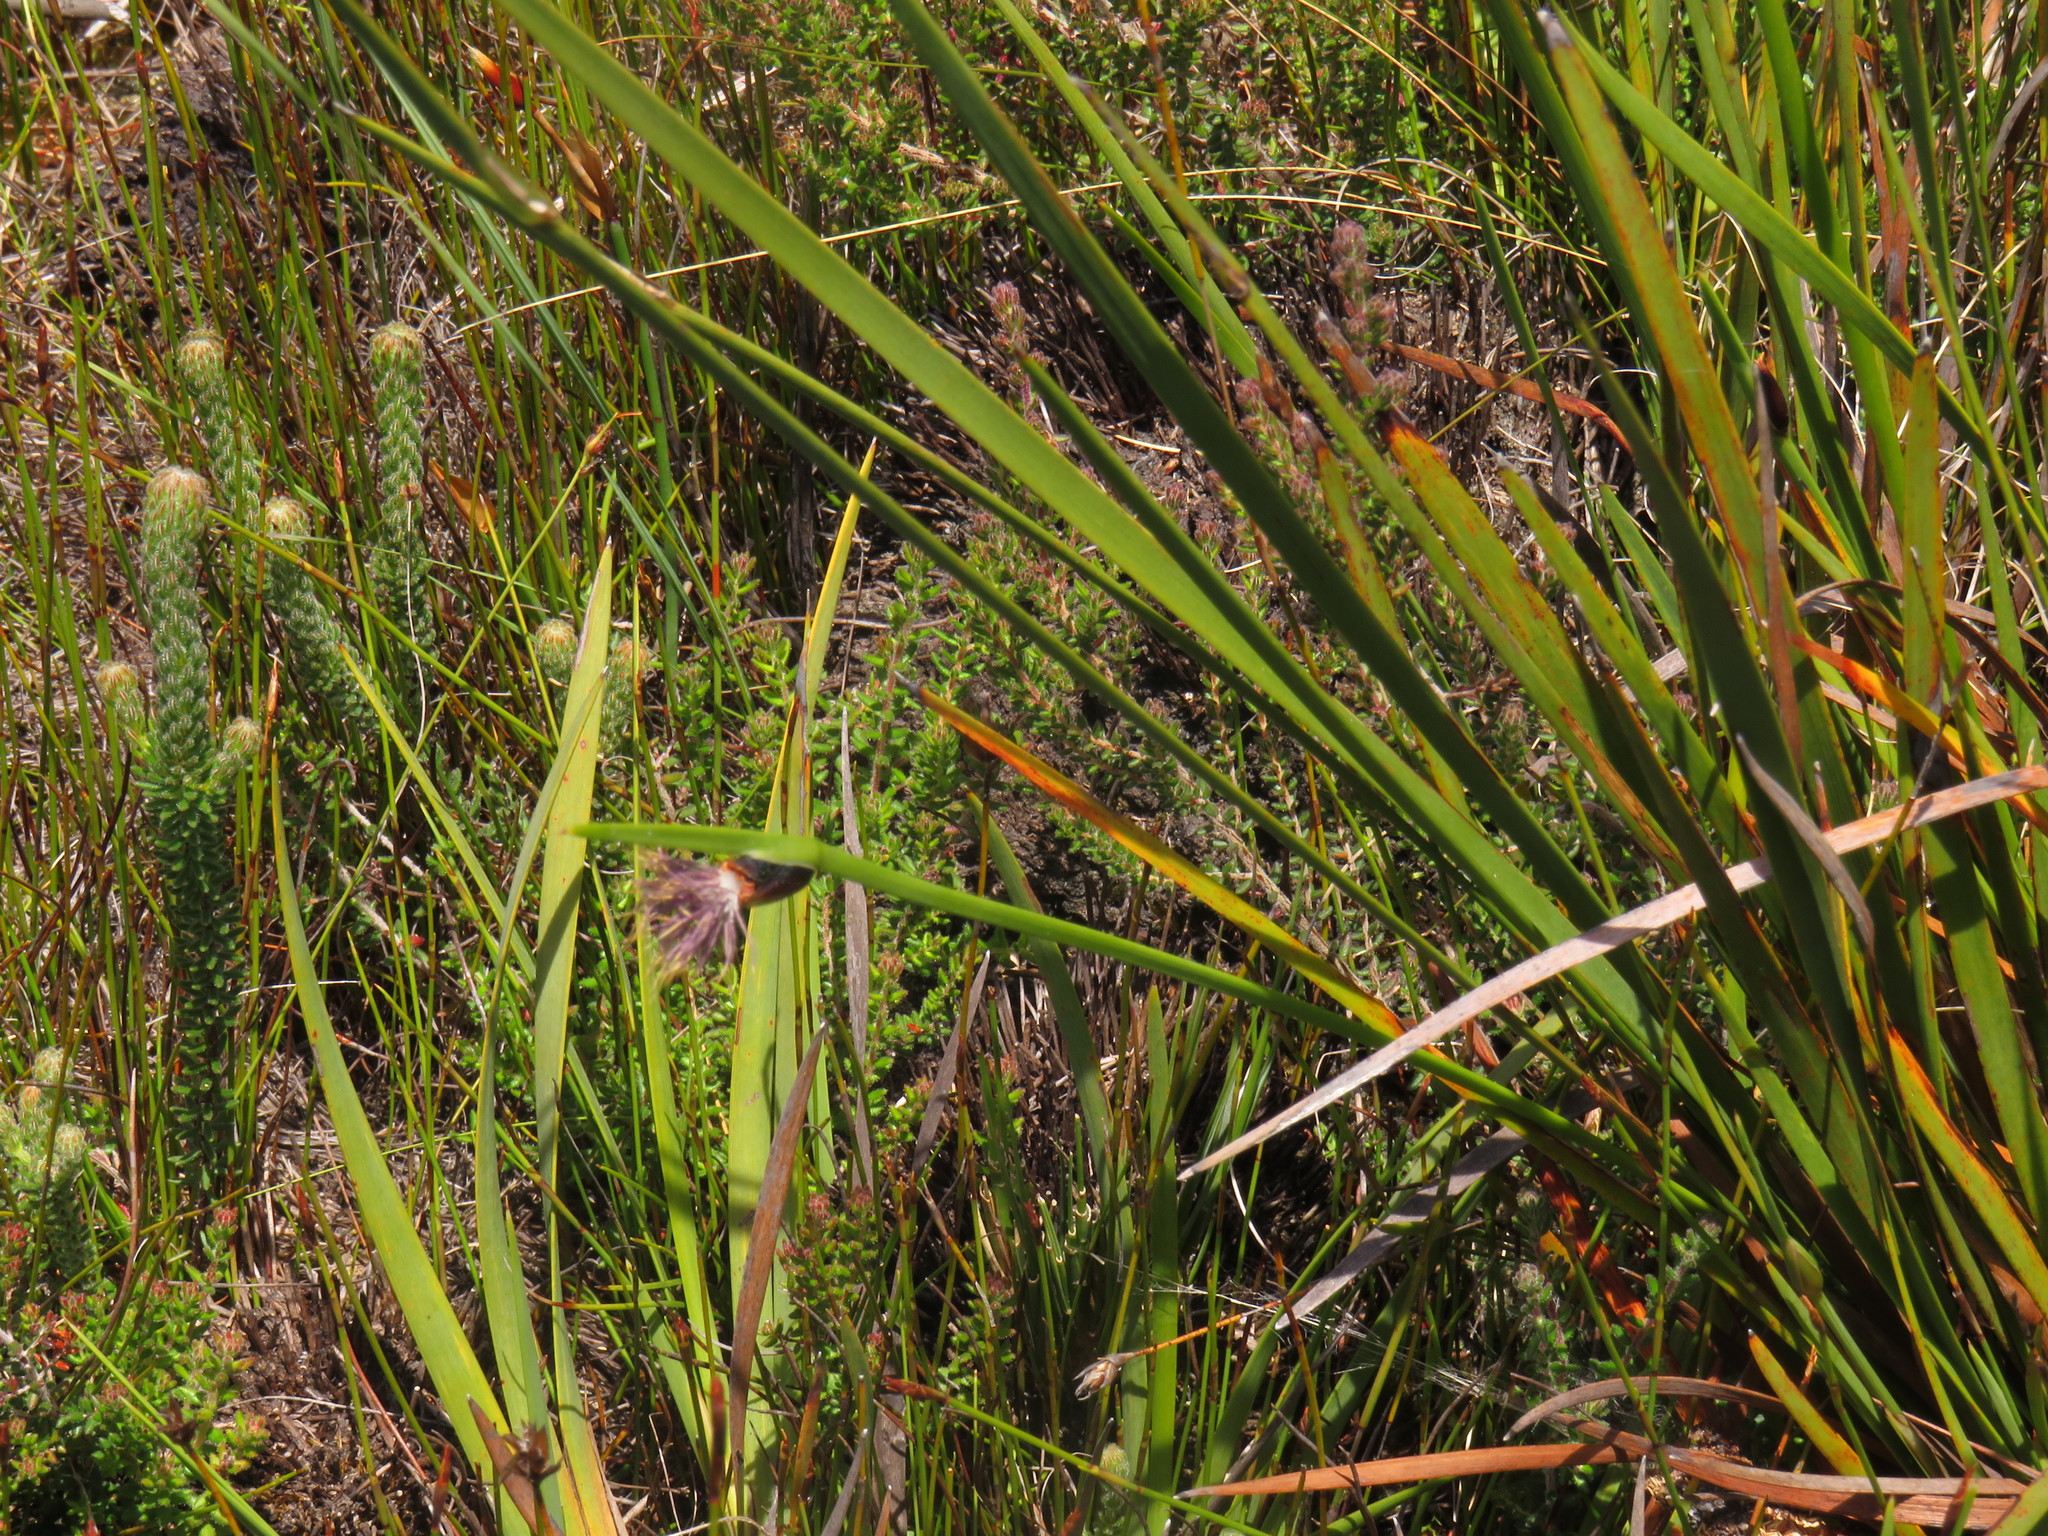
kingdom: Plantae
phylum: Tracheophyta
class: Liliopsida
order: Poales
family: Cyperaceae
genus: Chrysitrix
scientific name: Chrysitrix capensis
